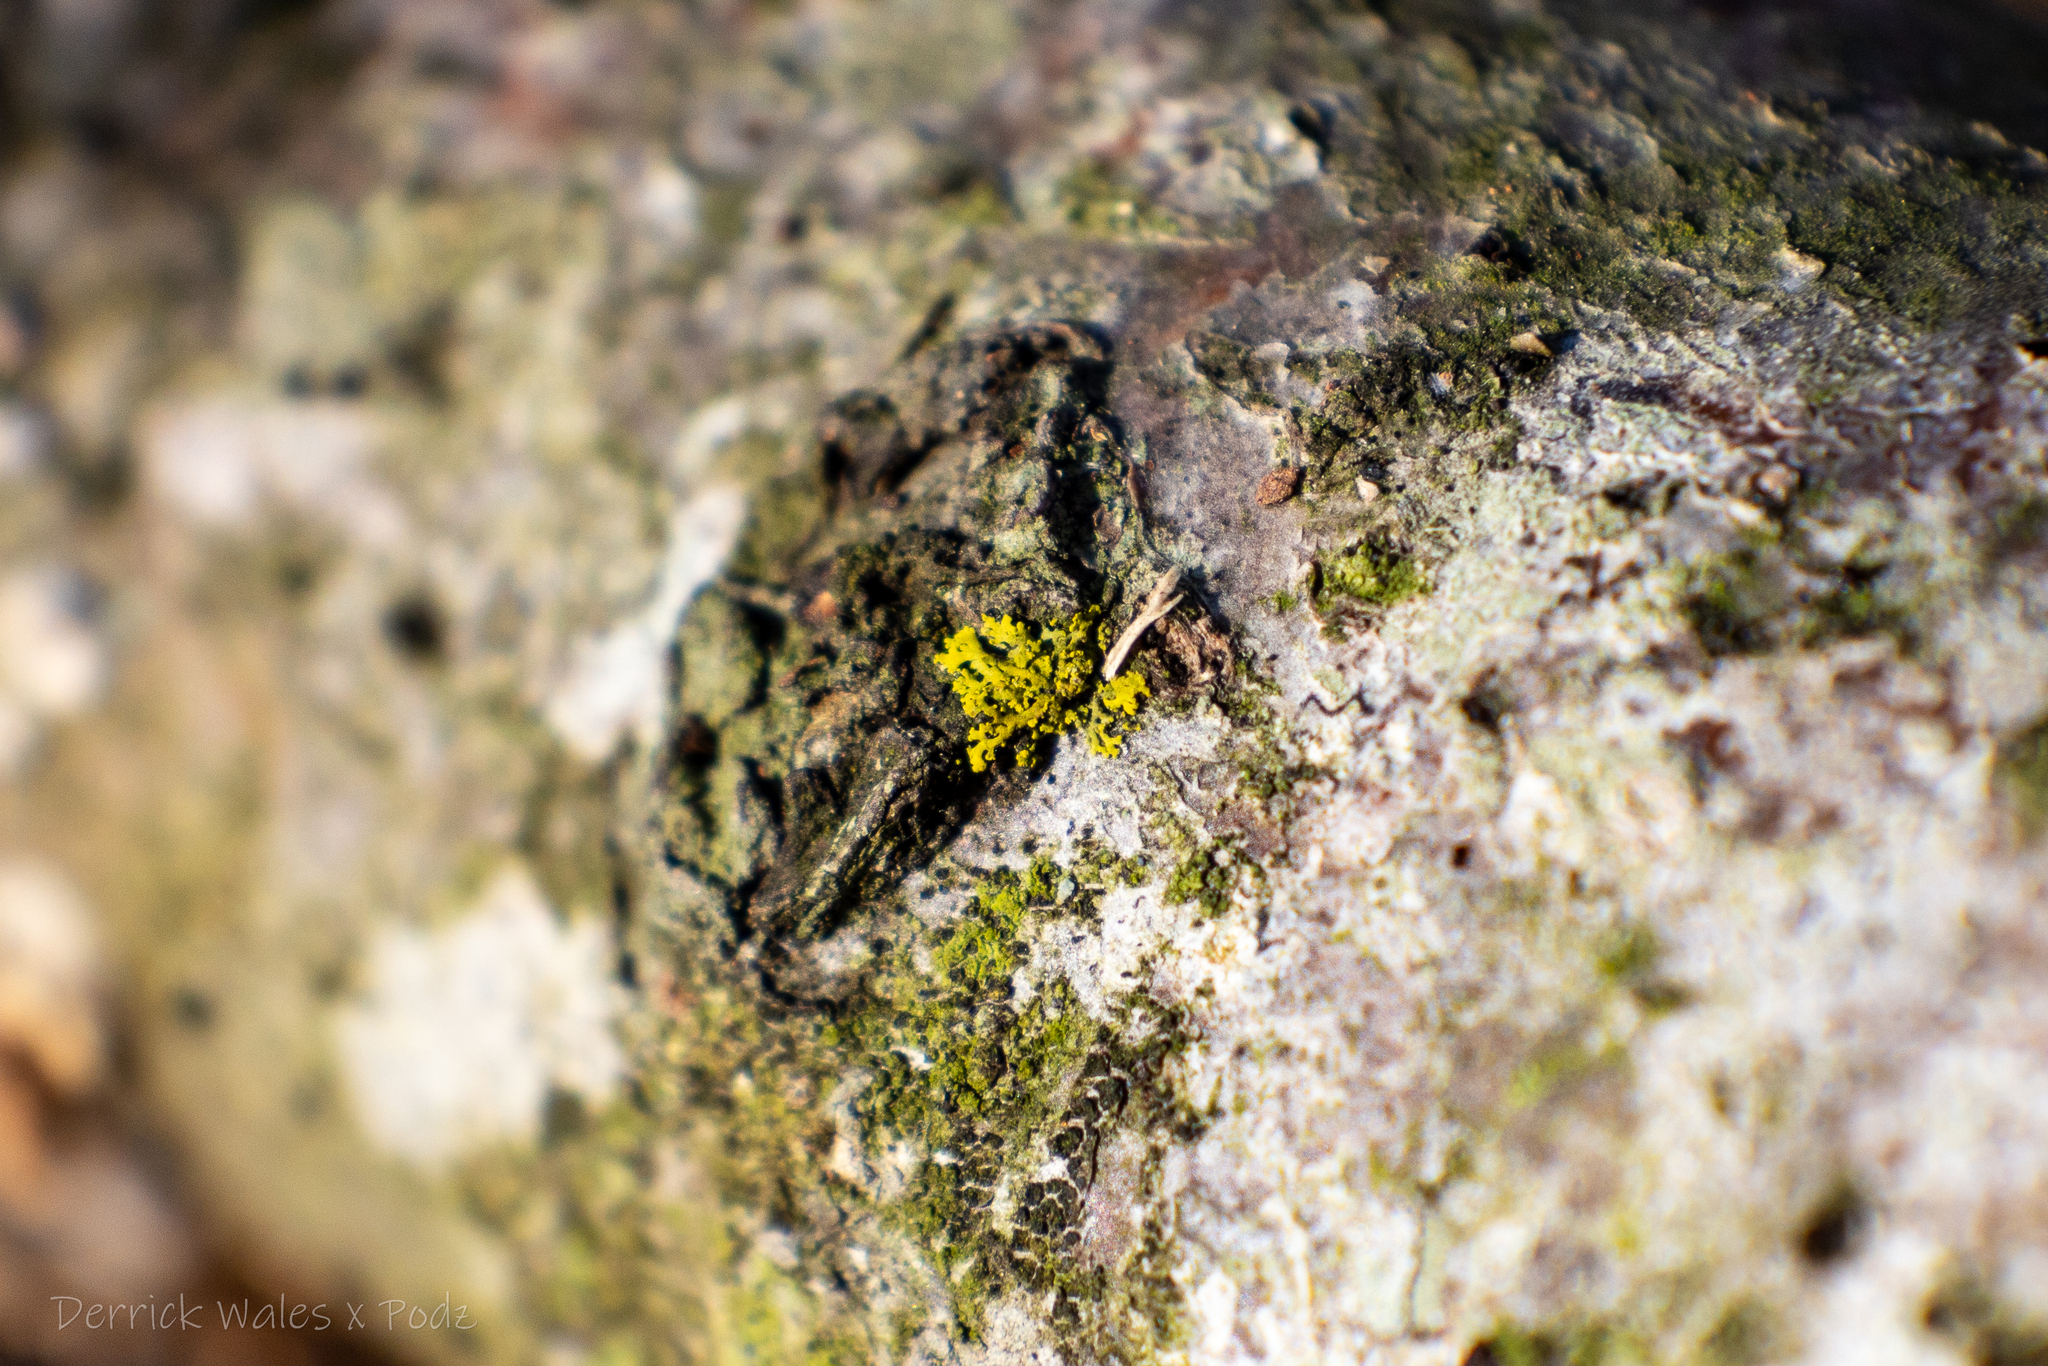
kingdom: Fungi
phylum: Ascomycota
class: Candelariomycetes
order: Candelariales
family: Candelariaceae
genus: Candelaria
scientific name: Candelaria concolor
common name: Candleflame lichen
